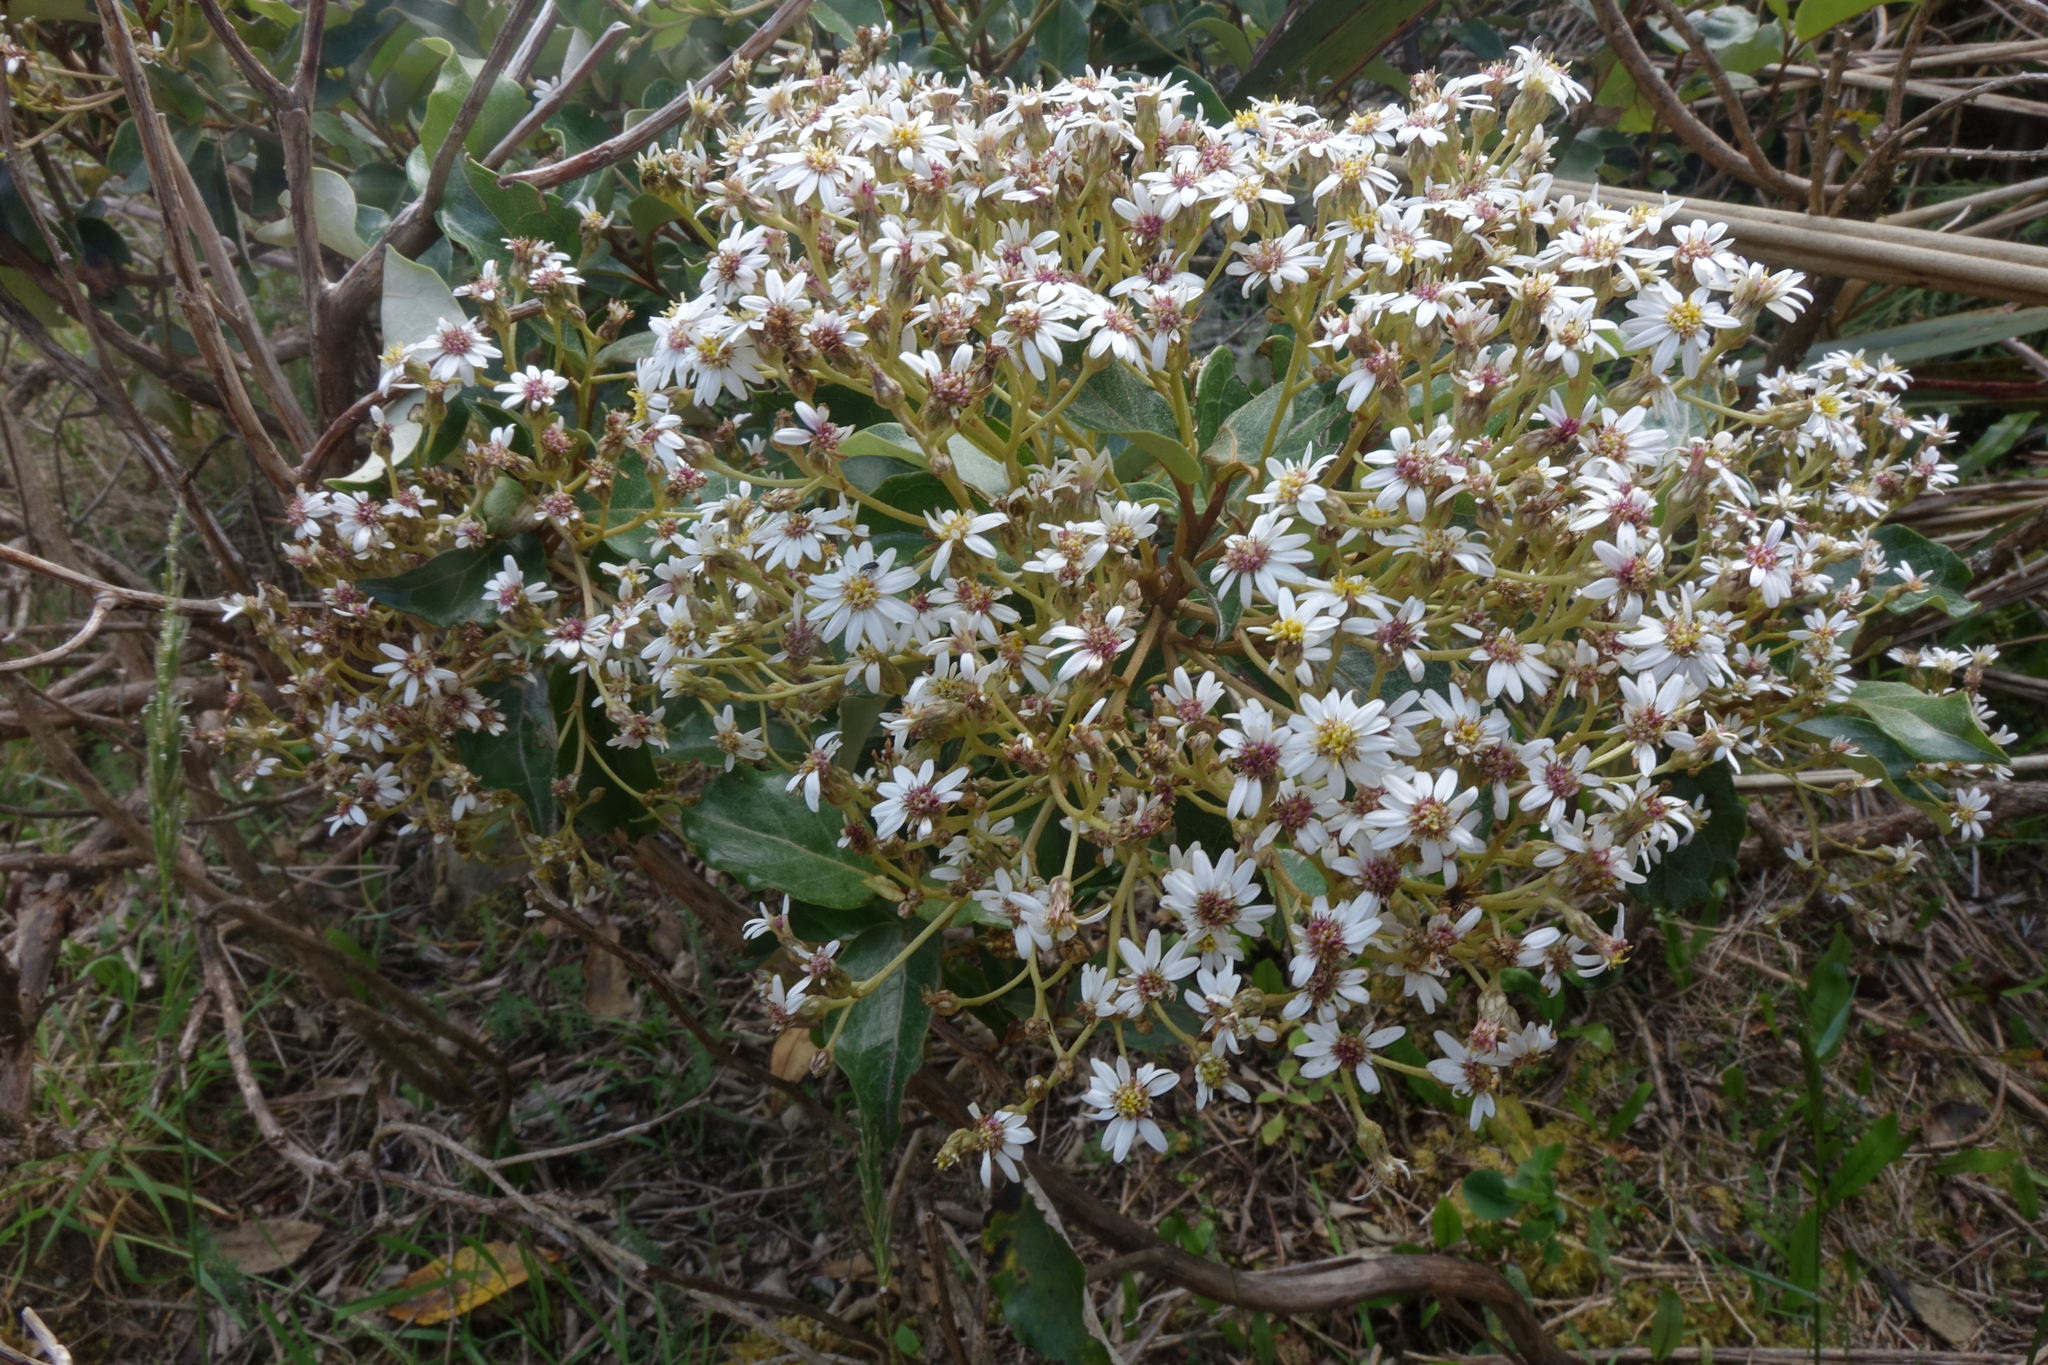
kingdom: Plantae
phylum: Tracheophyta
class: Magnoliopsida
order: Asterales
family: Asteraceae
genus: Olearia
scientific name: Olearia arborescens
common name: Glossy tree daisy
